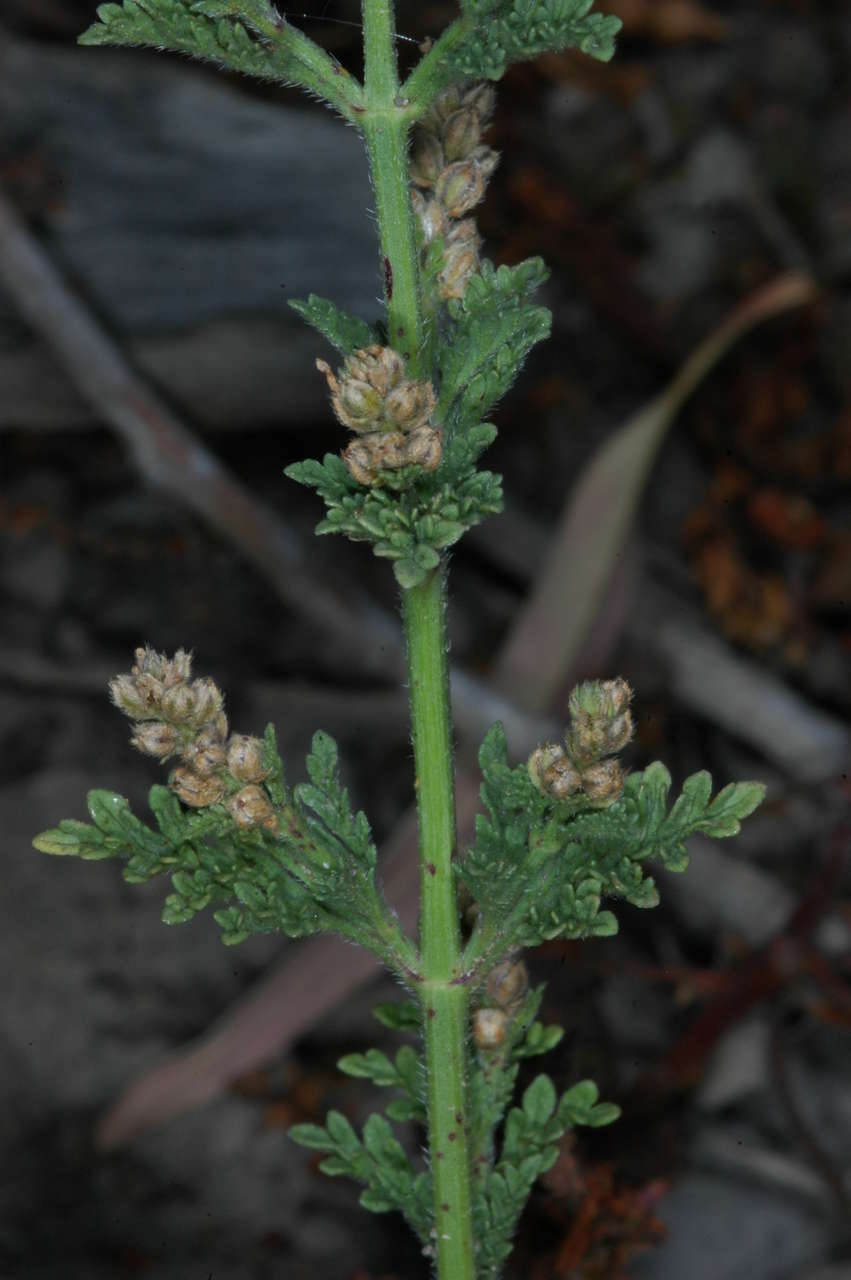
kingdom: Plantae
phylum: Tracheophyta
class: Magnoliopsida
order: Lamiales
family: Verbenaceae
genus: Verbena
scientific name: Verbena supina
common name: Trailing vervain
